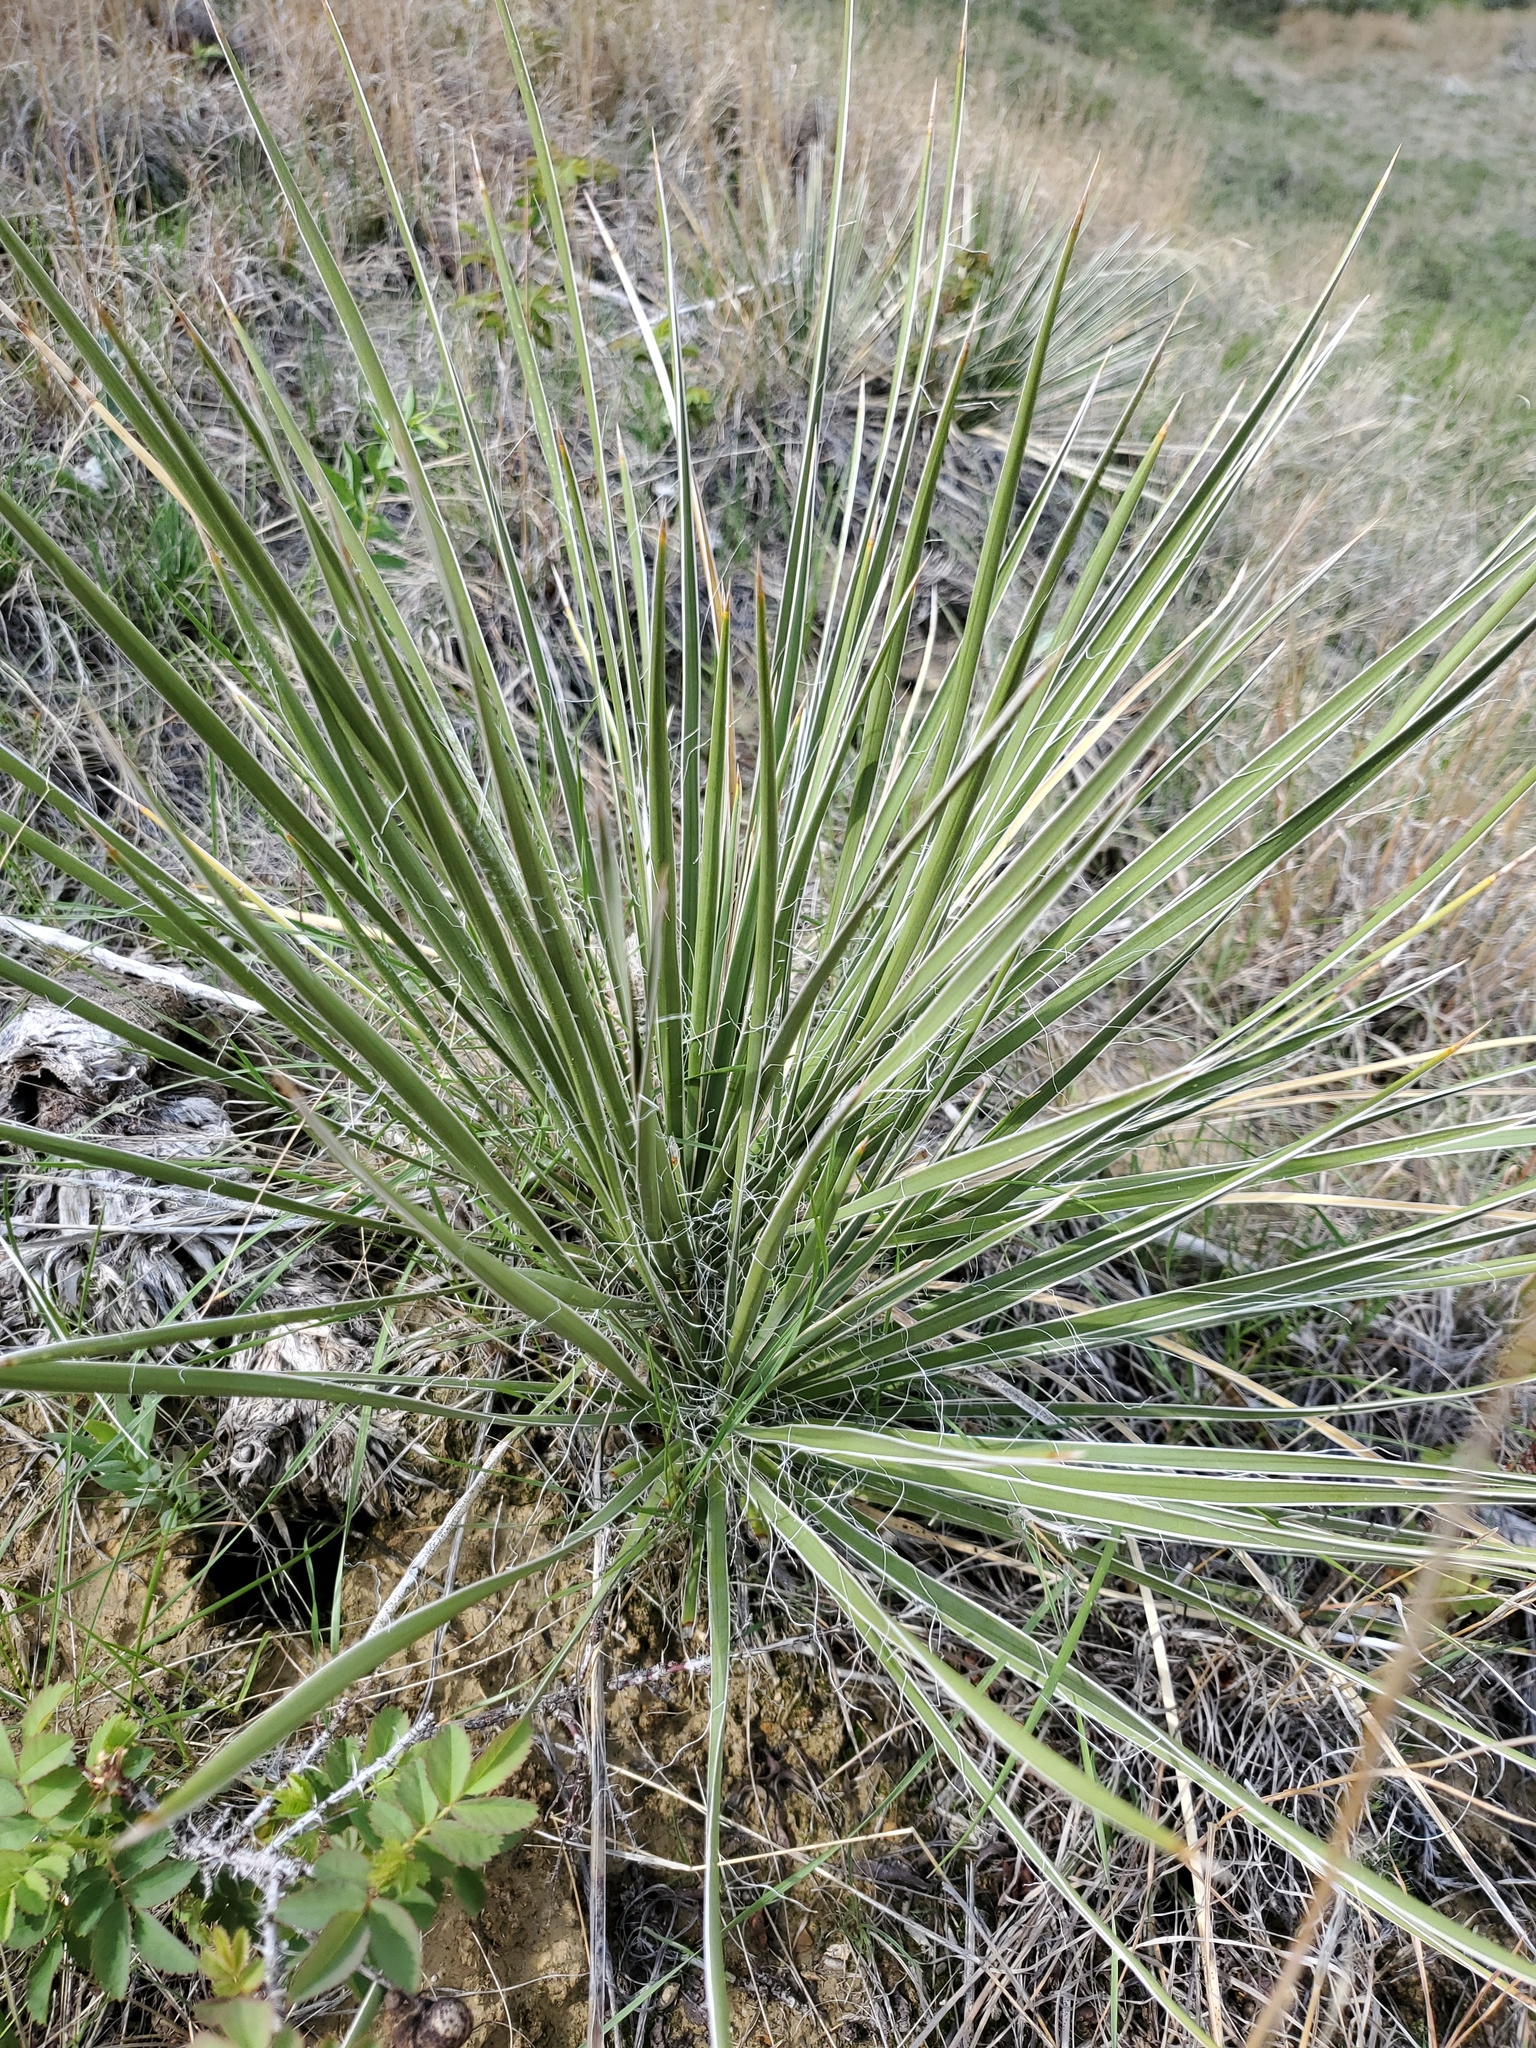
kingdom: Plantae
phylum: Tracheophyta
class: Liliopsida
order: Asparagales
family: Asparagaceae
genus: Yucca
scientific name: Yucca glauca
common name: Great plains yucca
